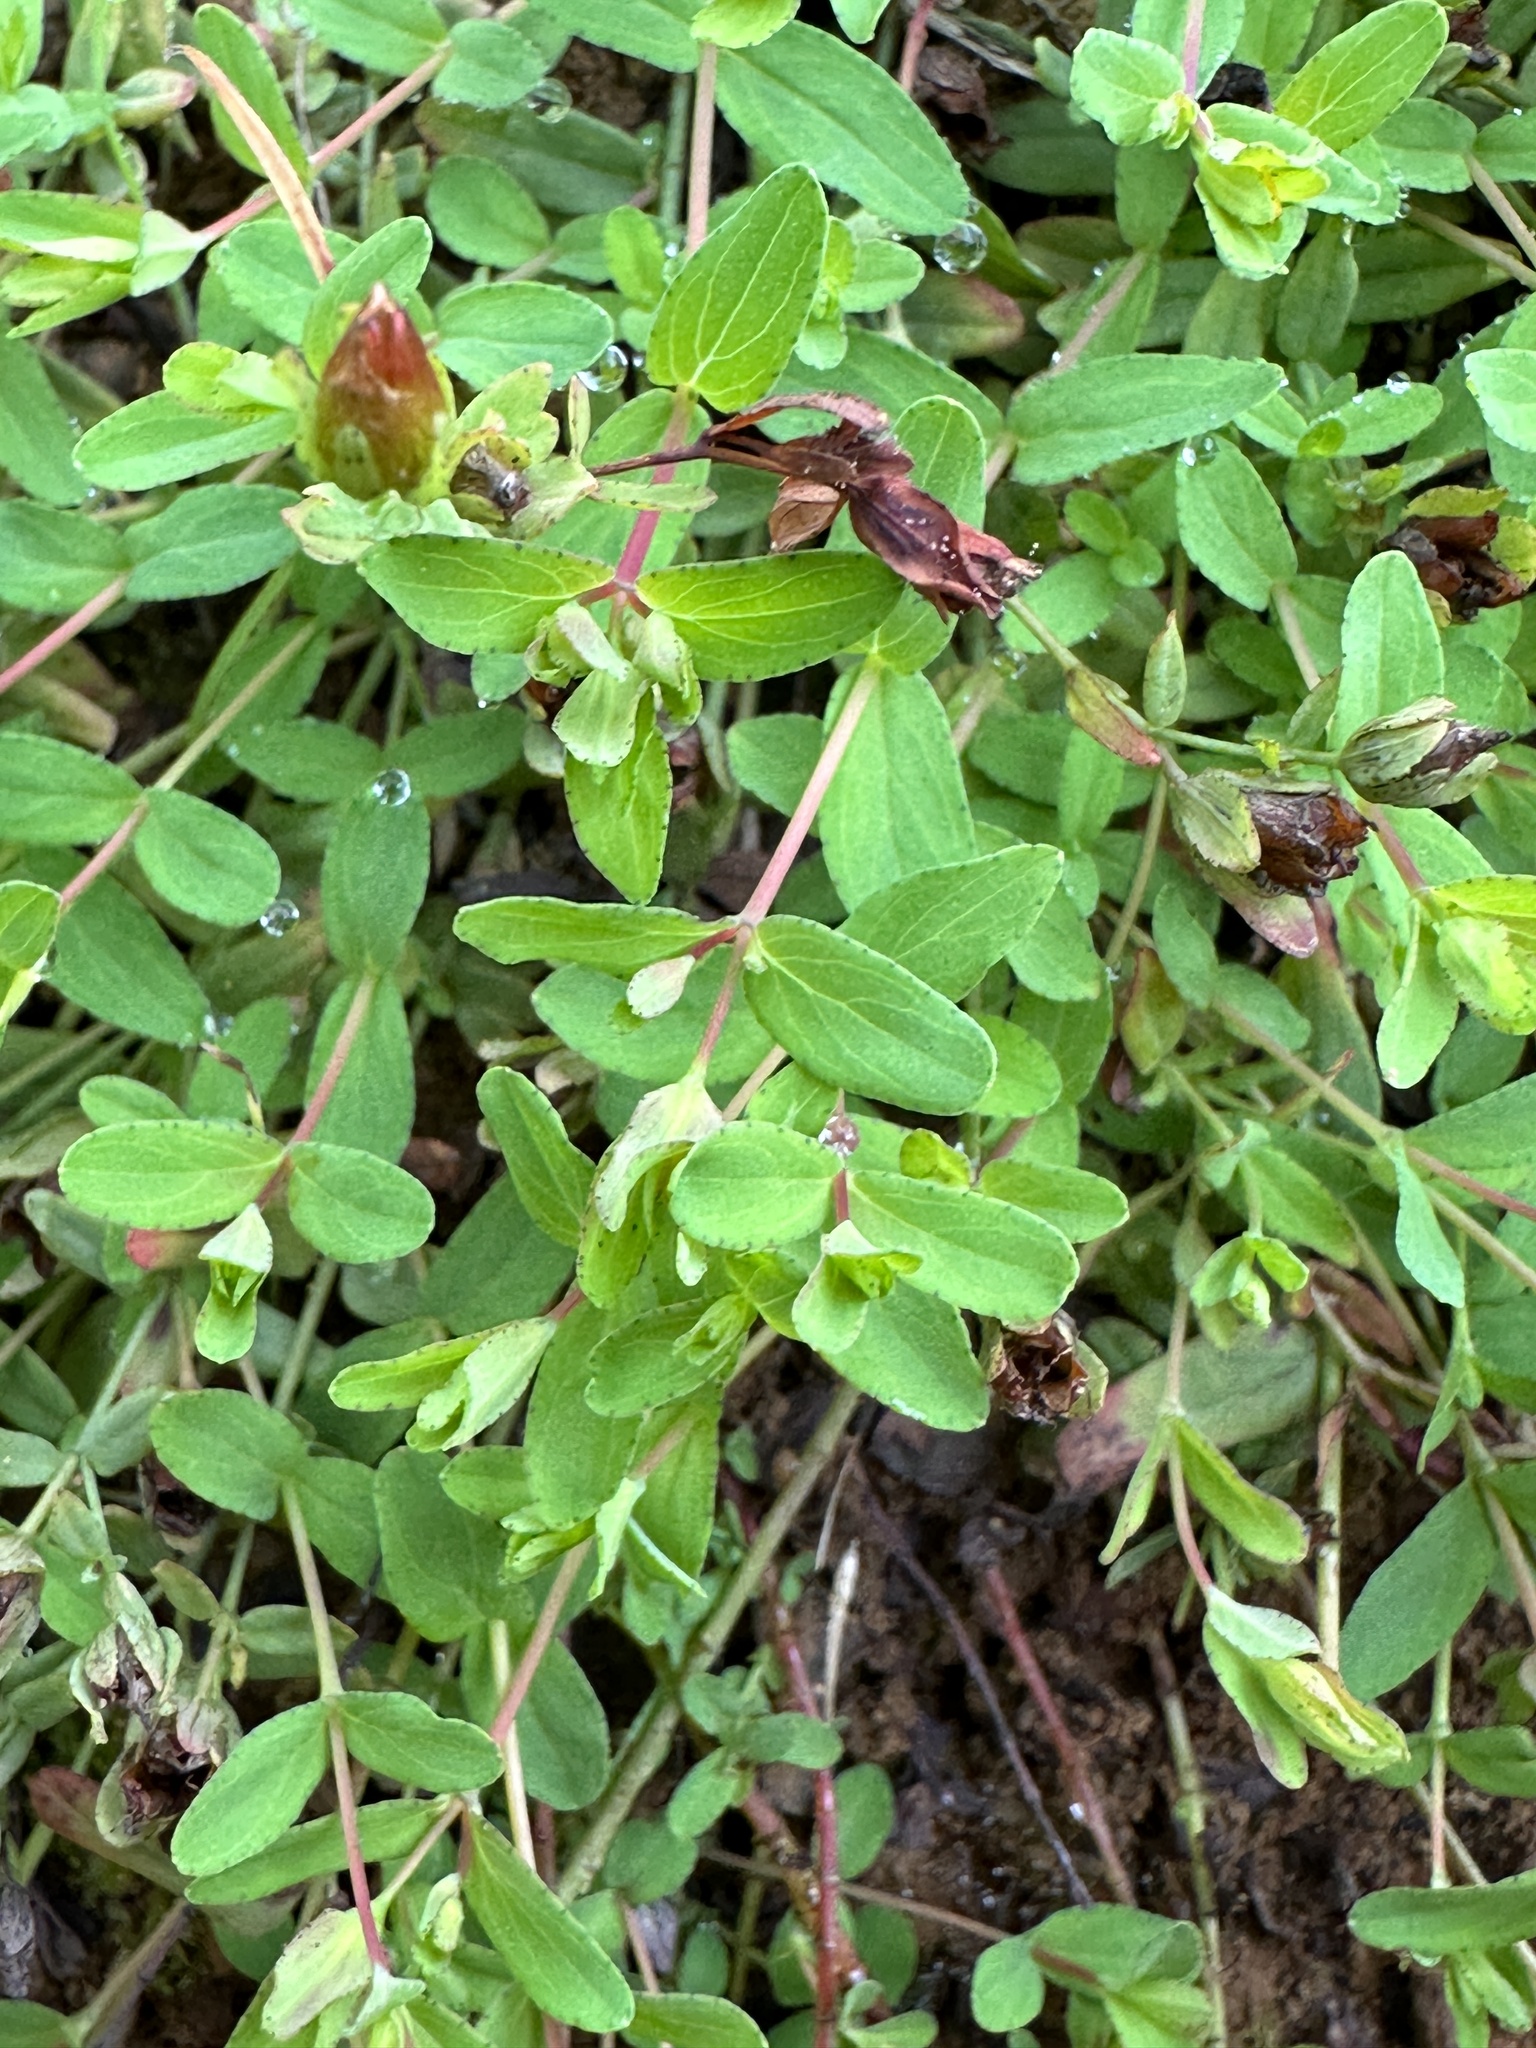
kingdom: Plantae
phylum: Tracheophyta
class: Magnoliopsida
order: Malpighiales
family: Hypericaceae
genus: Hypericum
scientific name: Hypericum humifusum
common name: Trailing st. john's-wort
